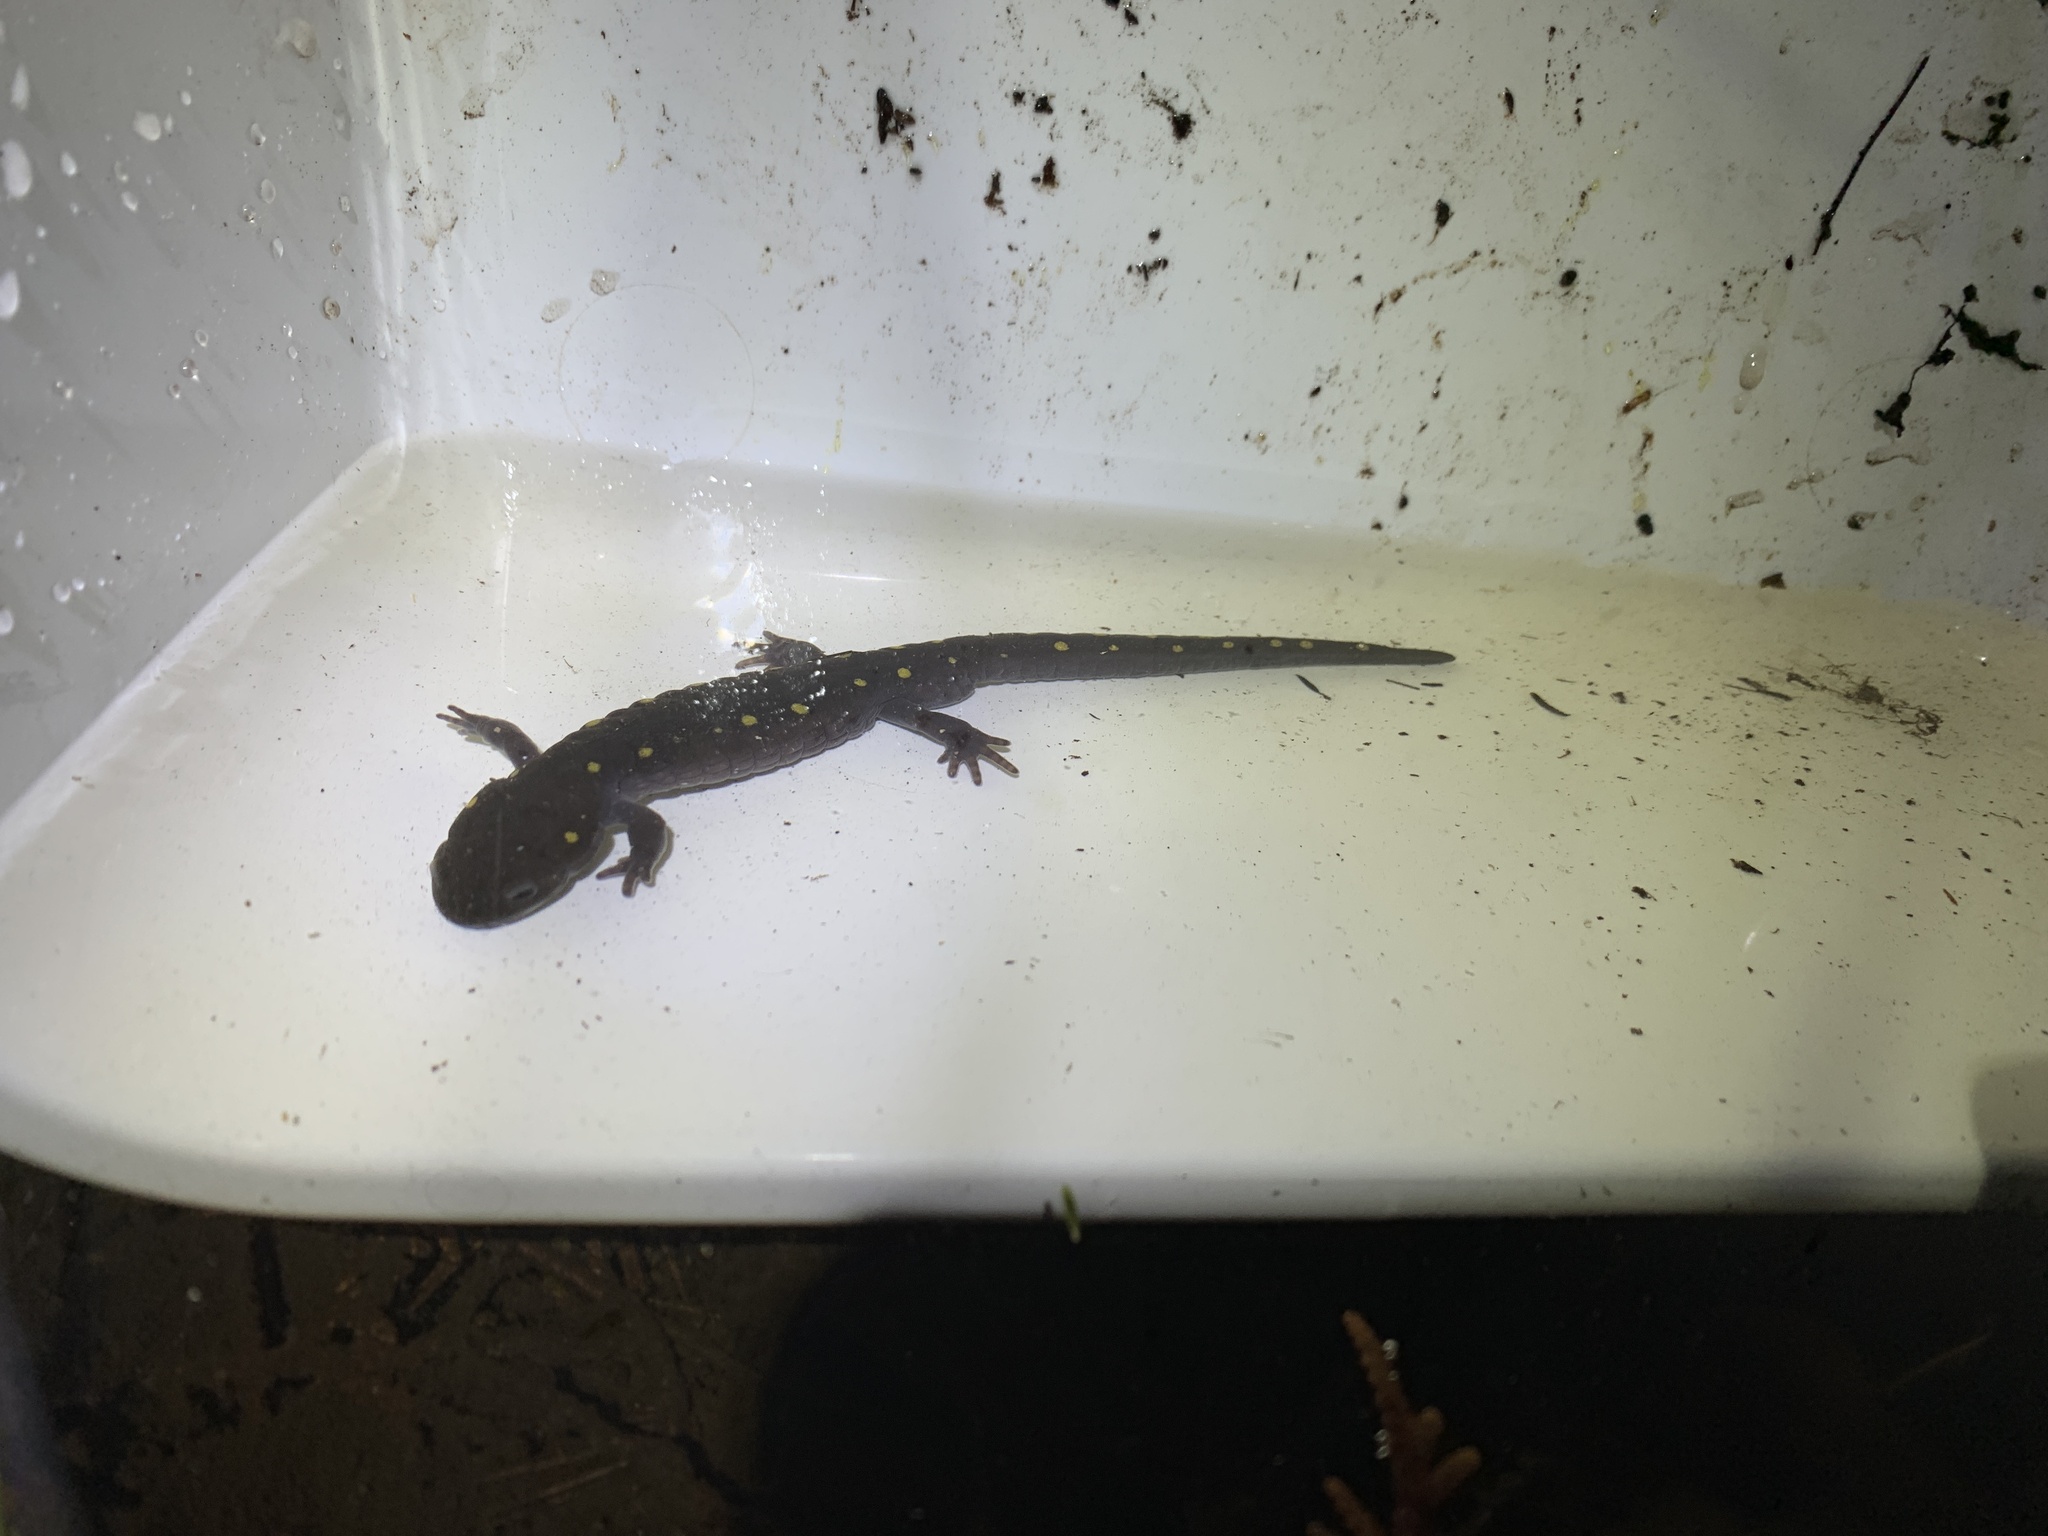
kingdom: Animalia
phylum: Chordata
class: Amphibia
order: Caudata
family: Ambystomatidae
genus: Ambystoma
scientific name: Ambystoma maculatum
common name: Spotted salamander
